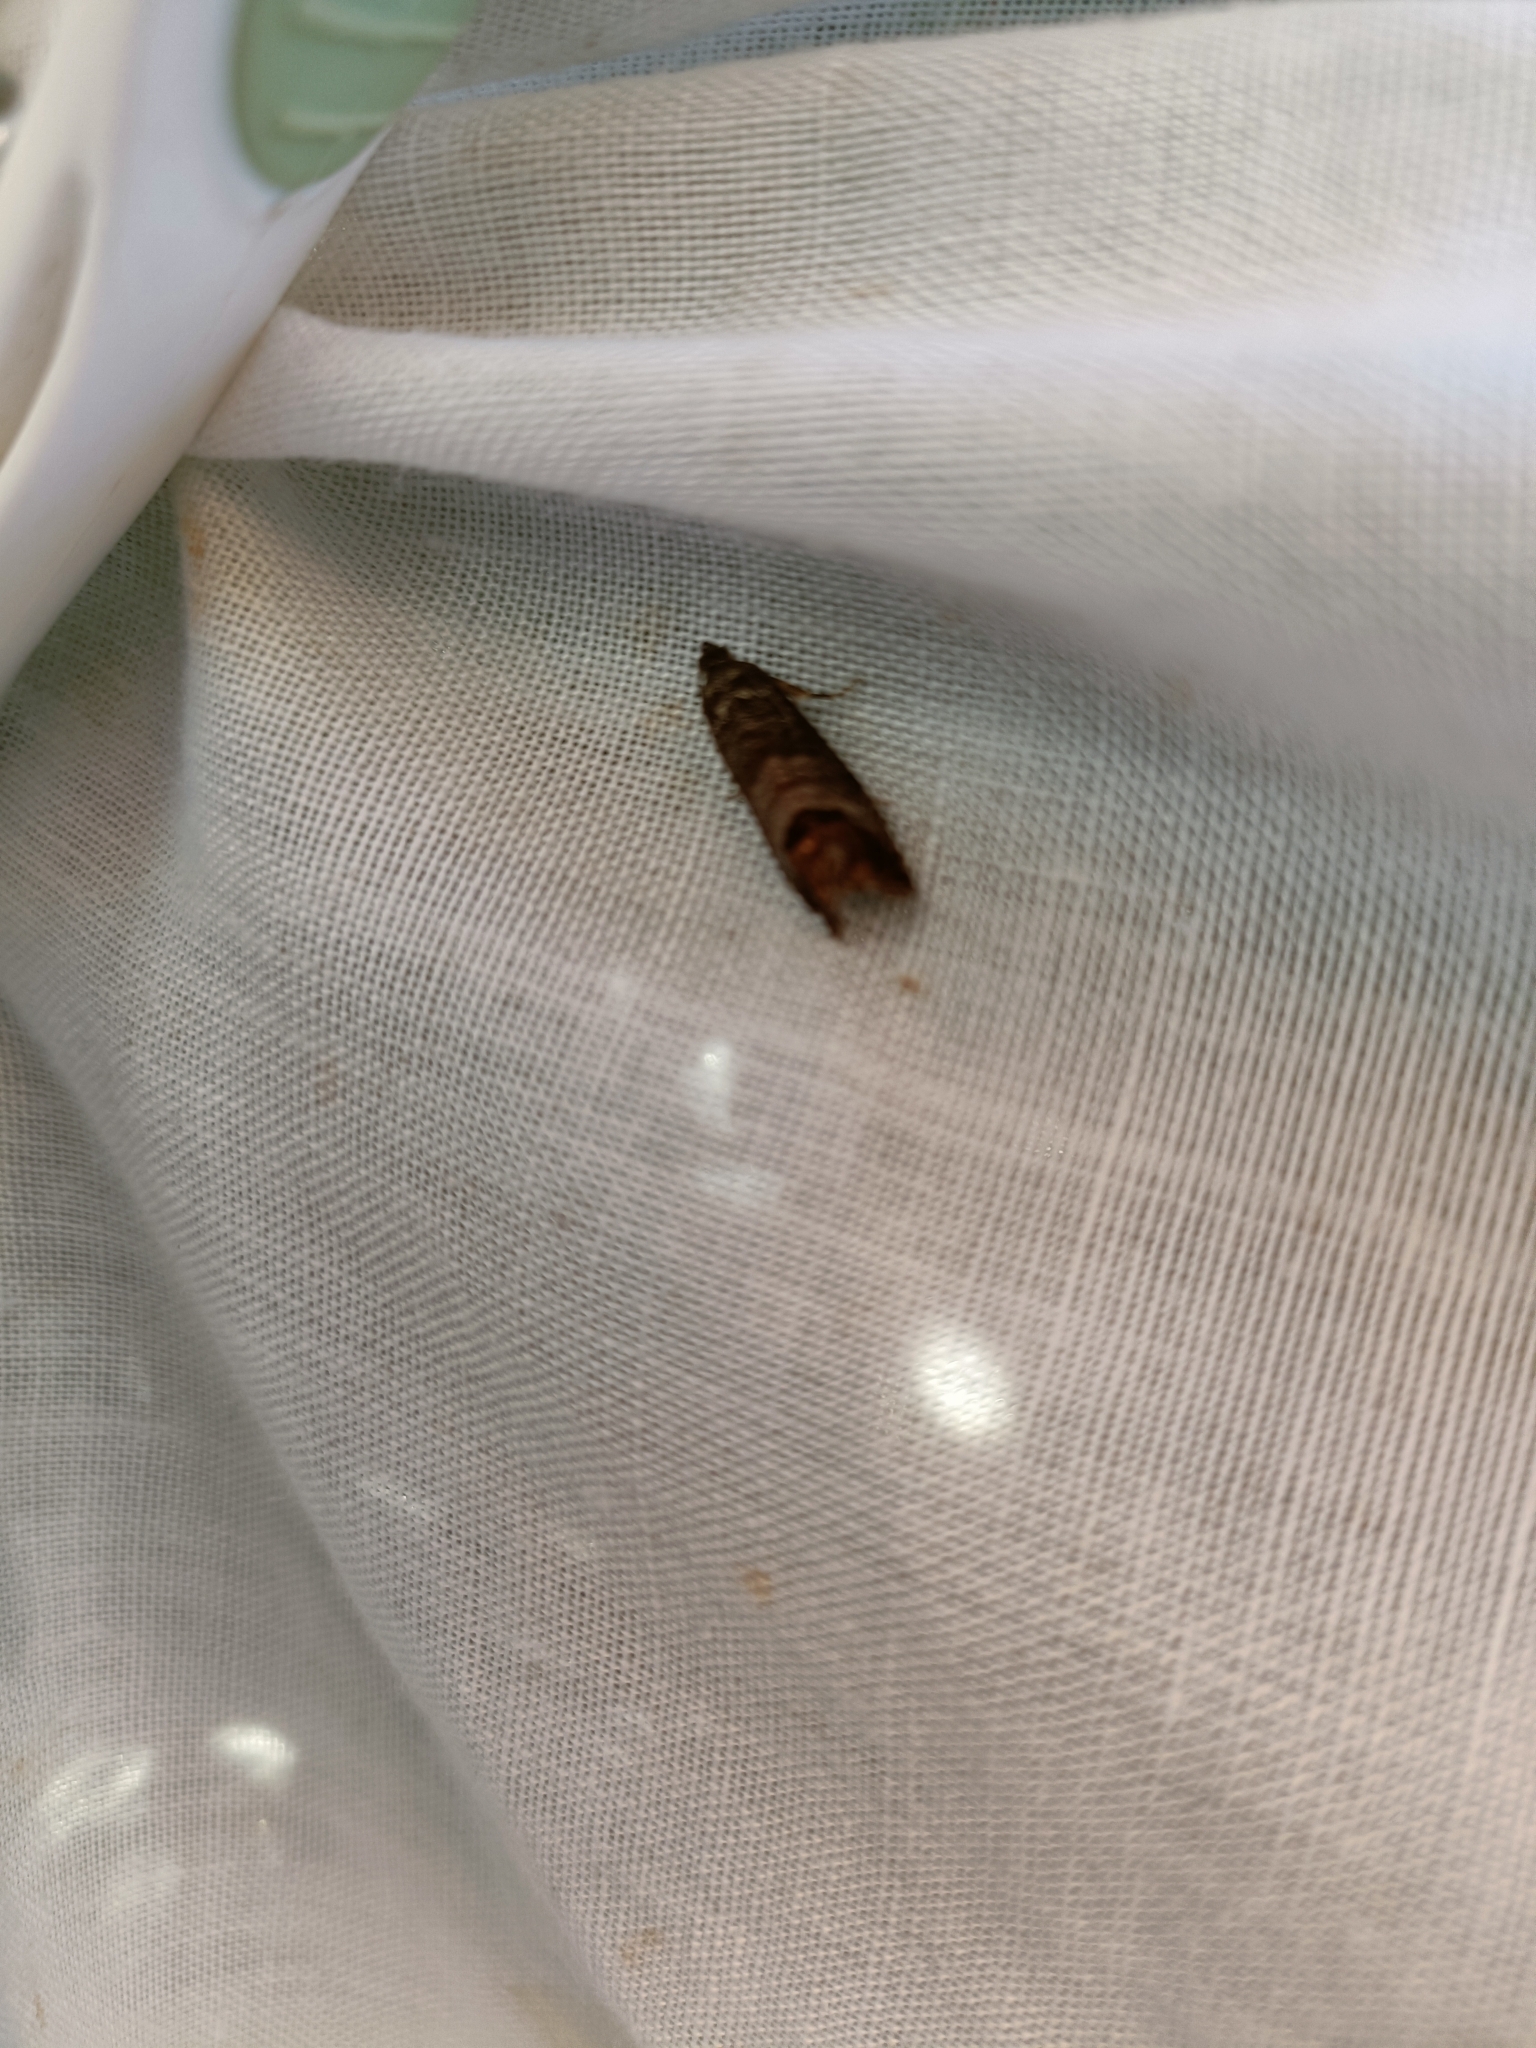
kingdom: Animalia
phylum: Arthropoda
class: Insecta
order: Lepidoptera
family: Tortricidae
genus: Cydia
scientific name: Cydia pomonella
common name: Codling moth
